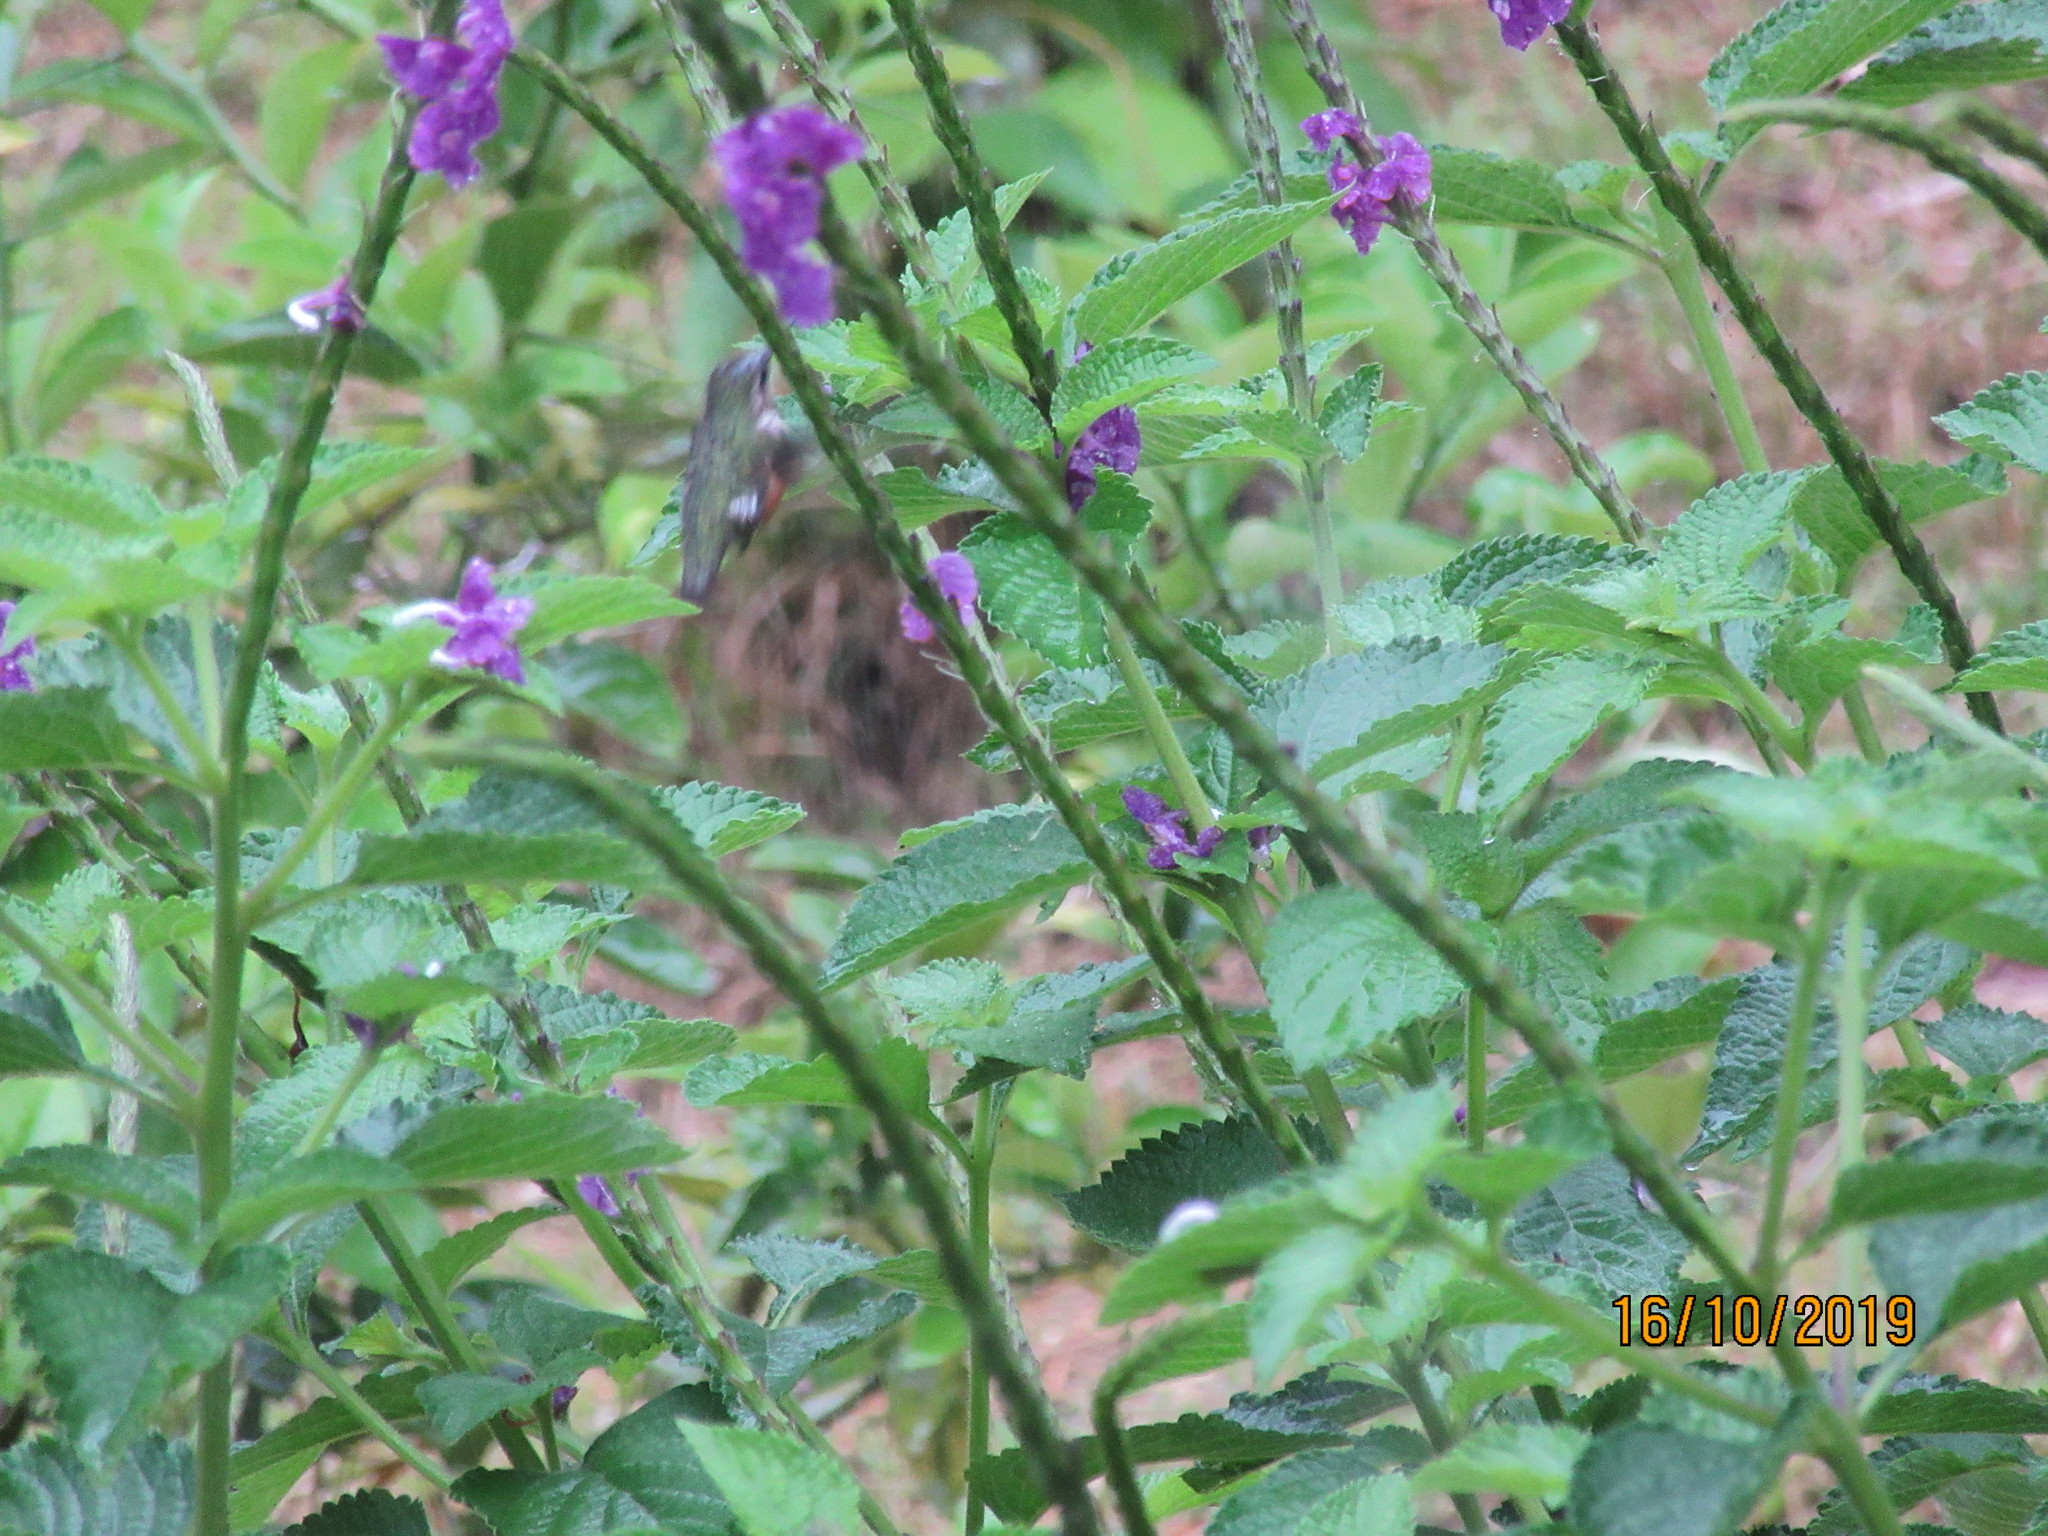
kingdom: Animalia
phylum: Chordata
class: Aves
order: Apodiformes
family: Trochilidae
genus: Chaetocercus
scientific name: Chaetocercus mulsant
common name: White-bellied woodstar
